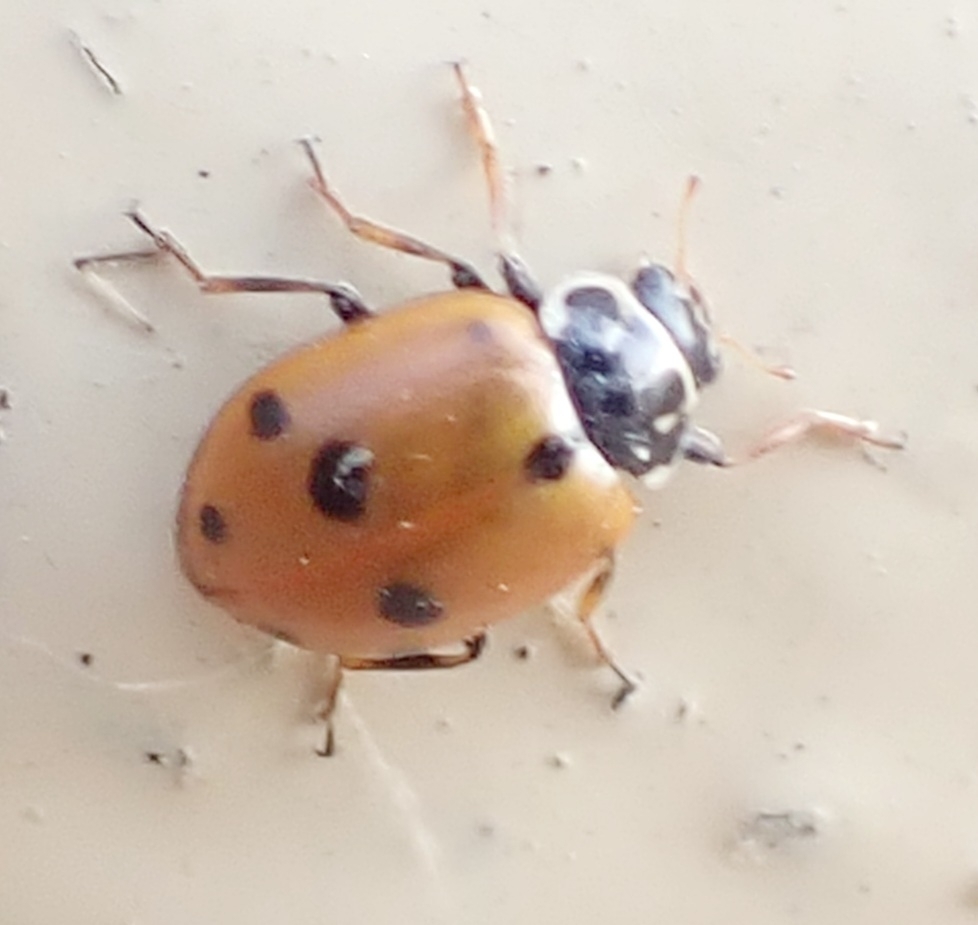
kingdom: Animalia
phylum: Arthropoda
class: Insecta
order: Coleoptera
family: Coccinellidae
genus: Hippodamia
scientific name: Hippodamia variegata
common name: Ladybird beetle
